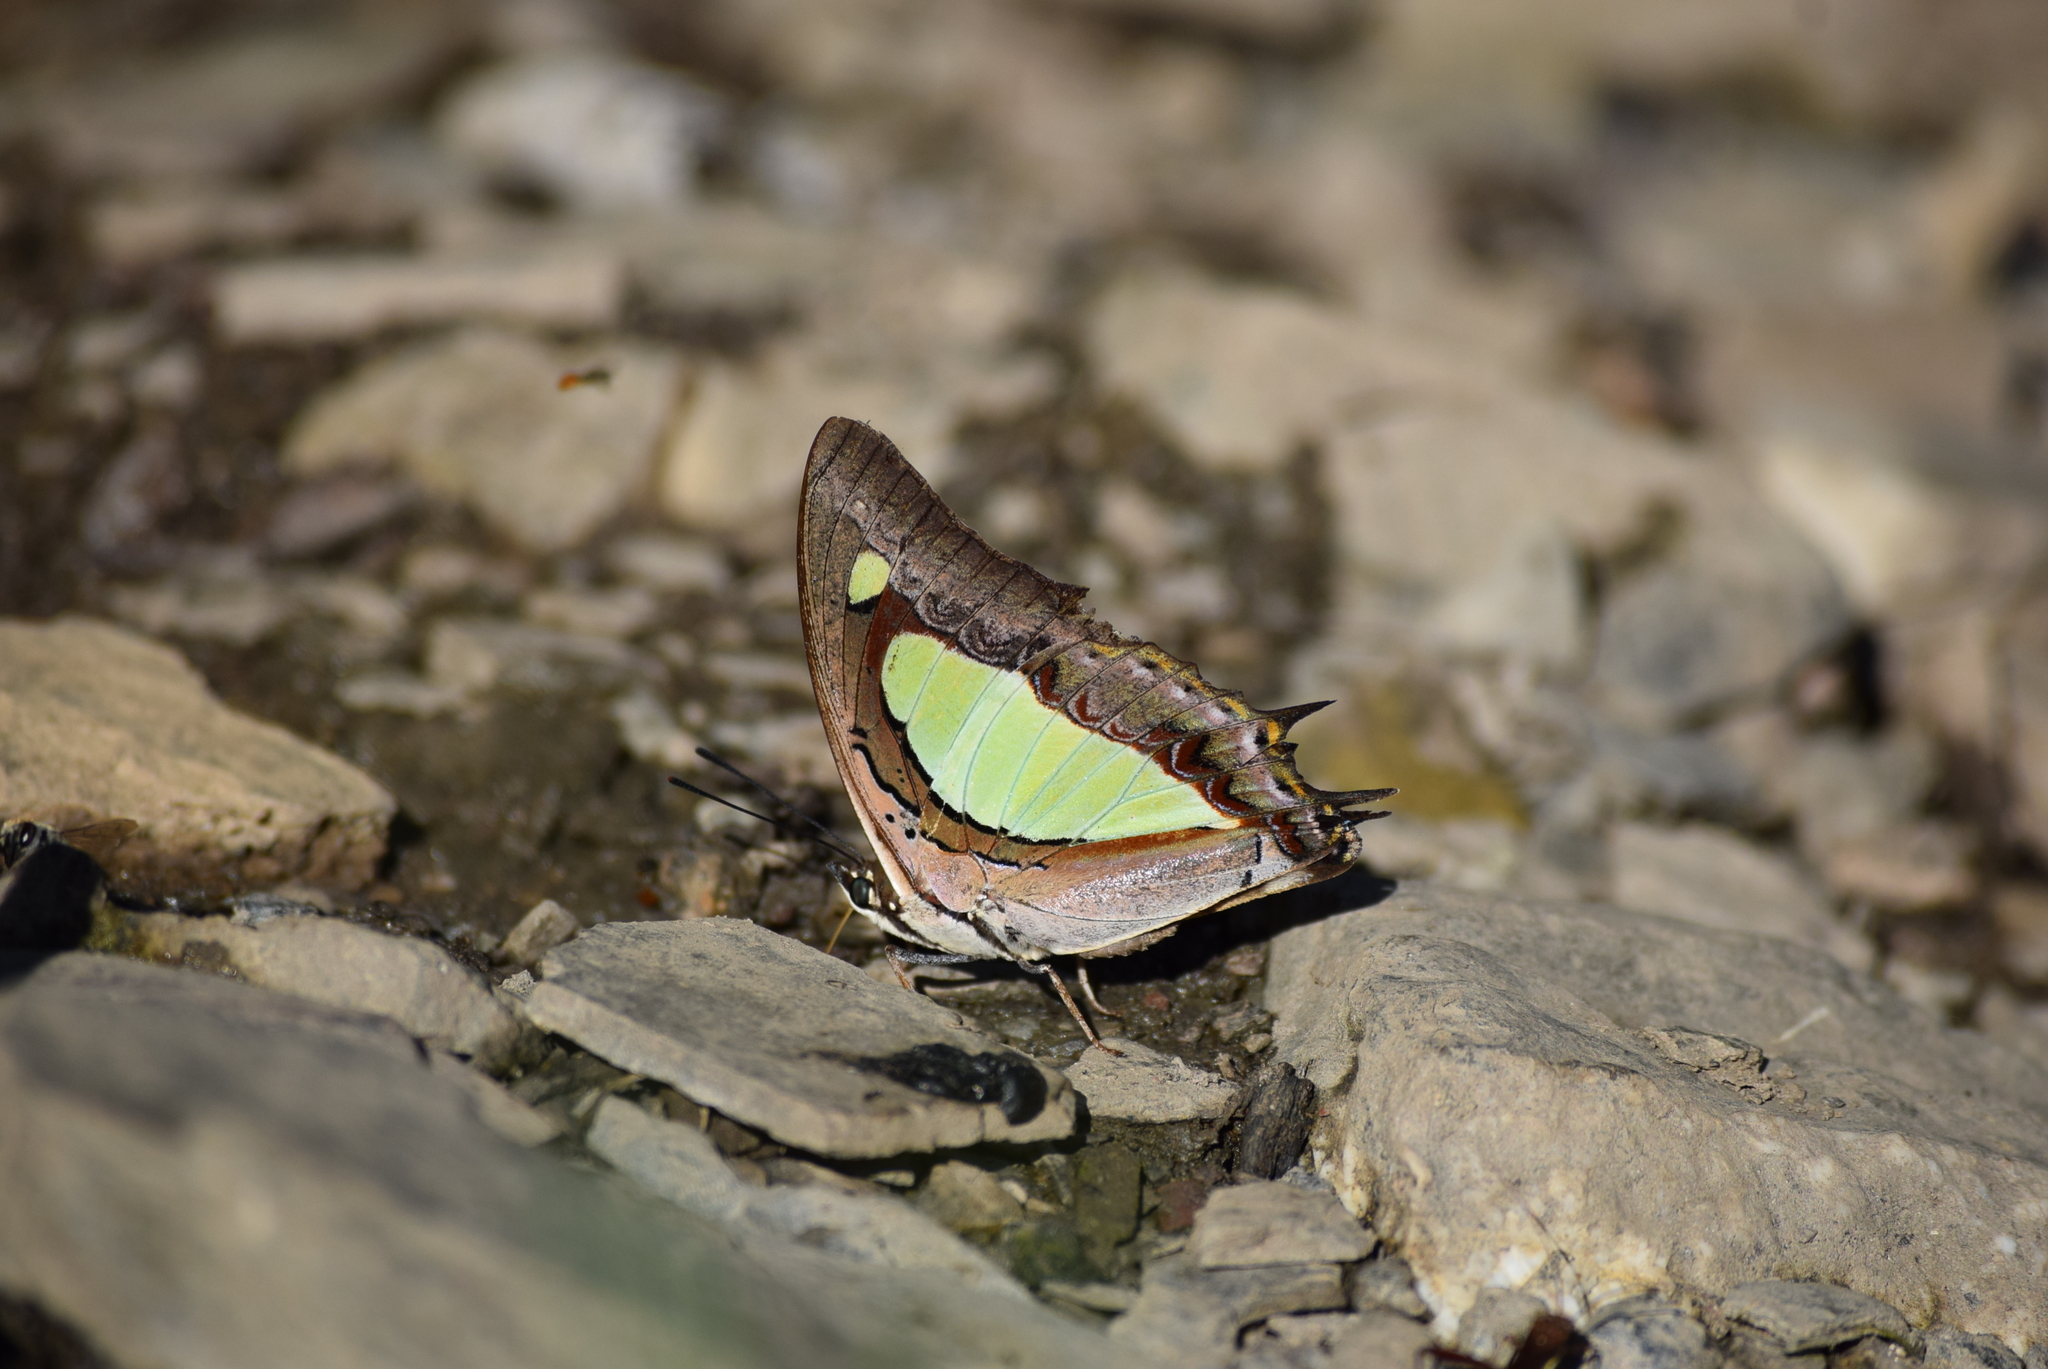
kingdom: Animalia
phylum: Arthropoda
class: Insecta
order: Lepidoptera
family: Nymphalidae
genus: Polyura
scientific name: Polyura athamas
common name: Common nawab
